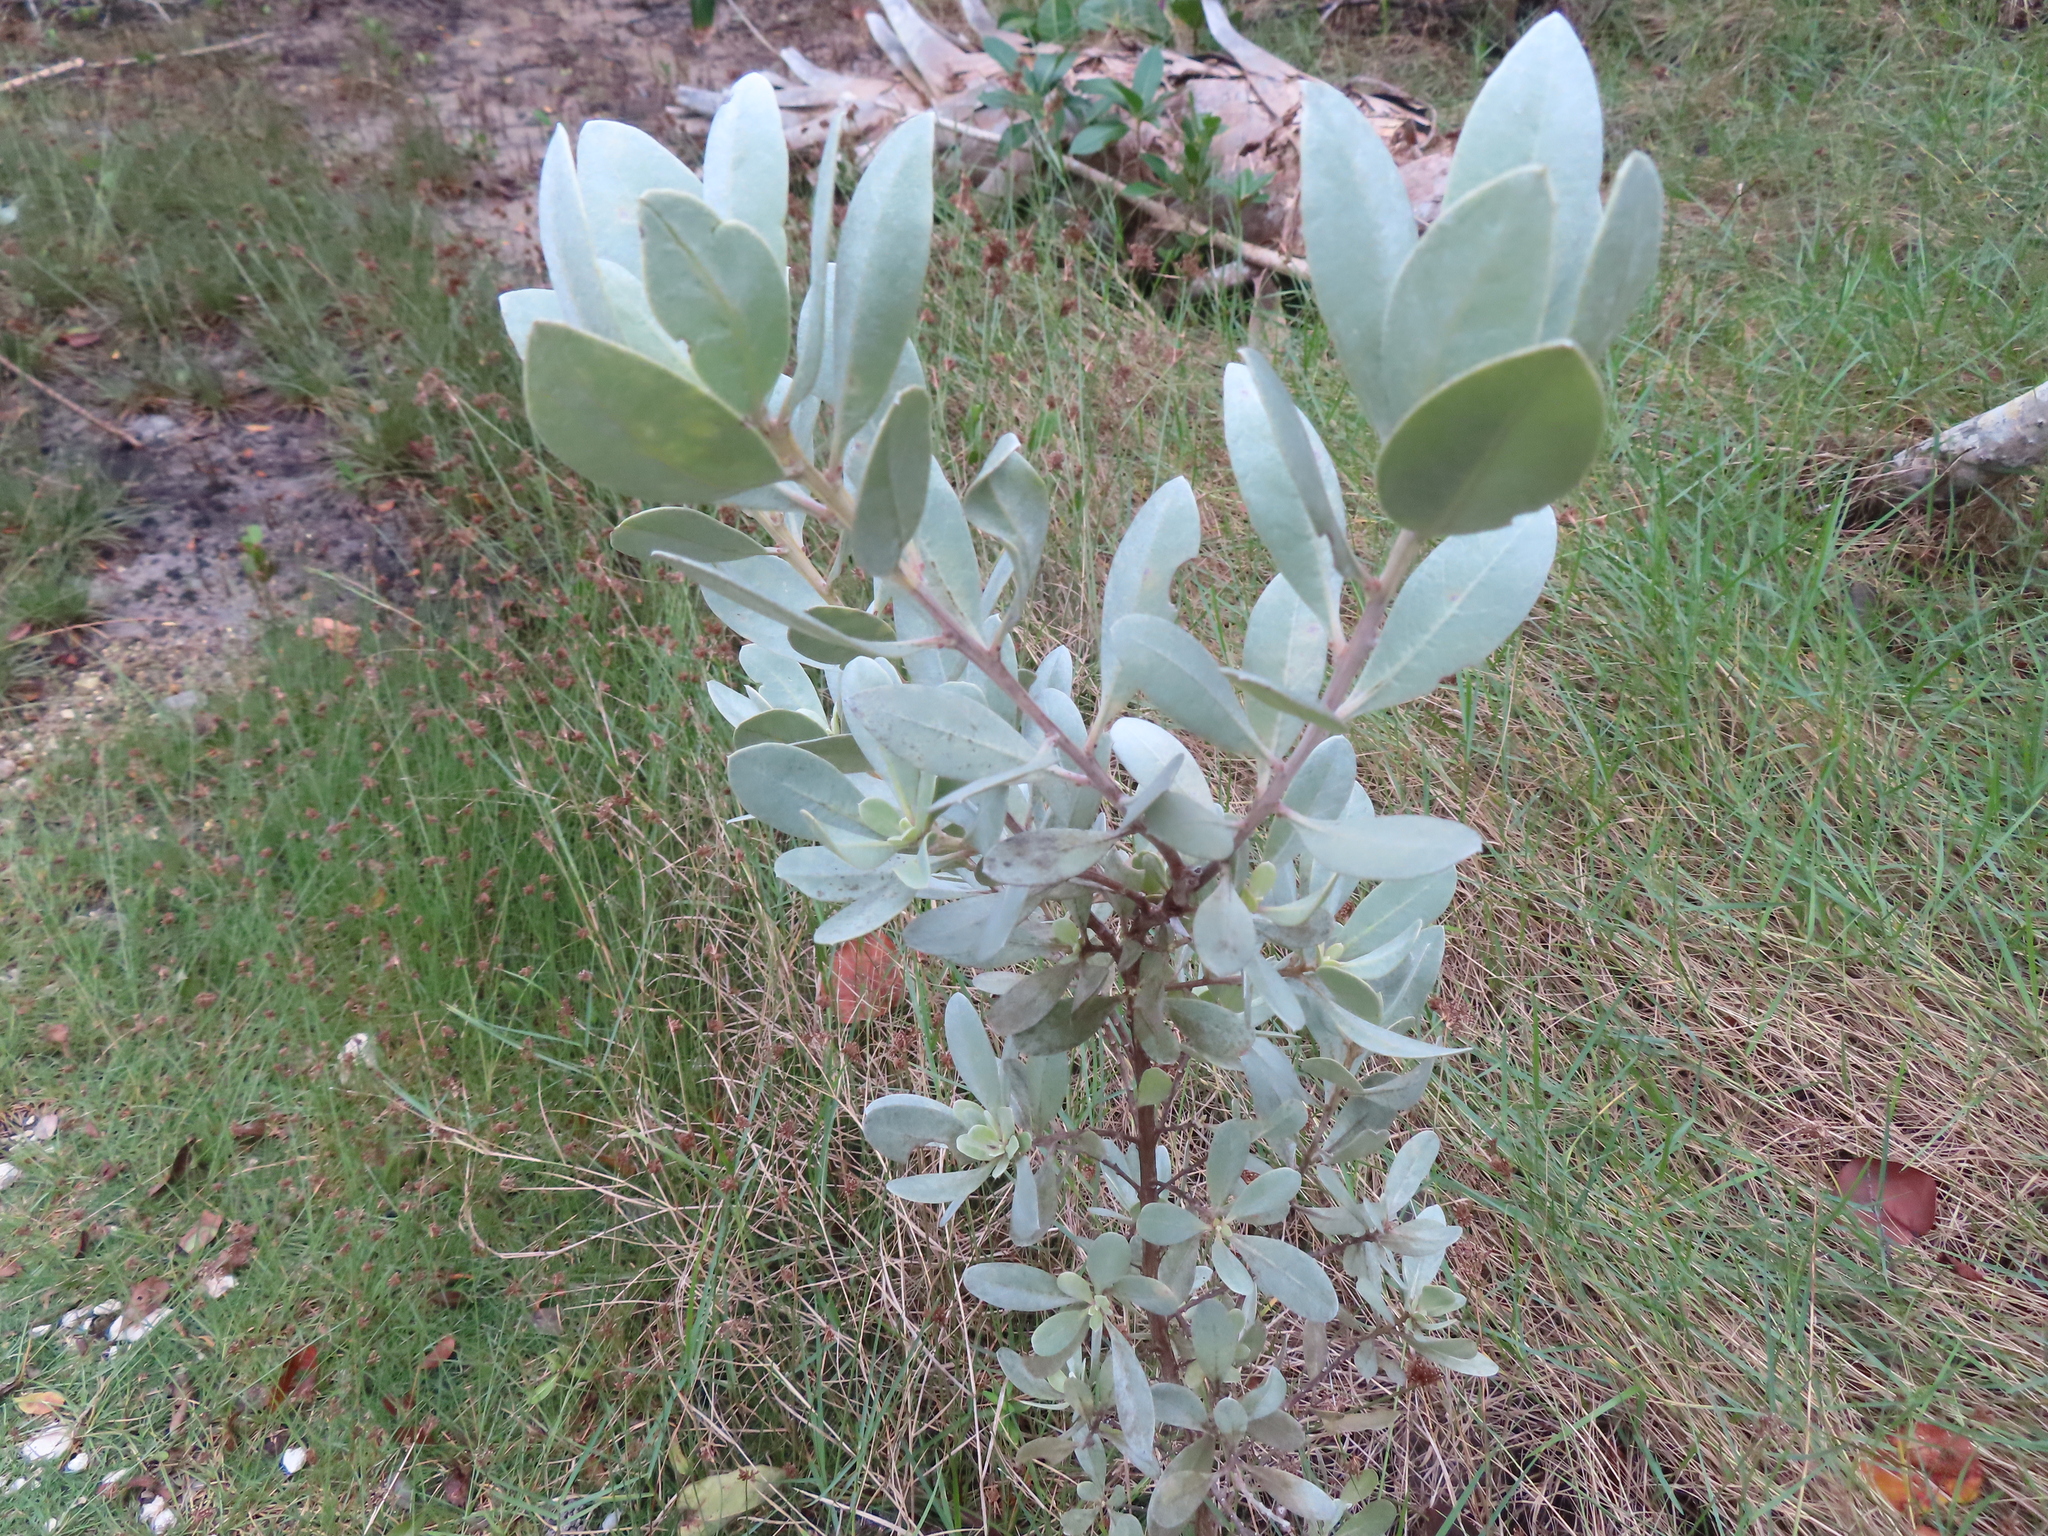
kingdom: Plantae
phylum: Tracheophyta
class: Magnoliopsida
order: Myrtales
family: Combretaceae
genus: Conocarpus
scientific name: Conocarpus erectus
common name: Button mangrove
